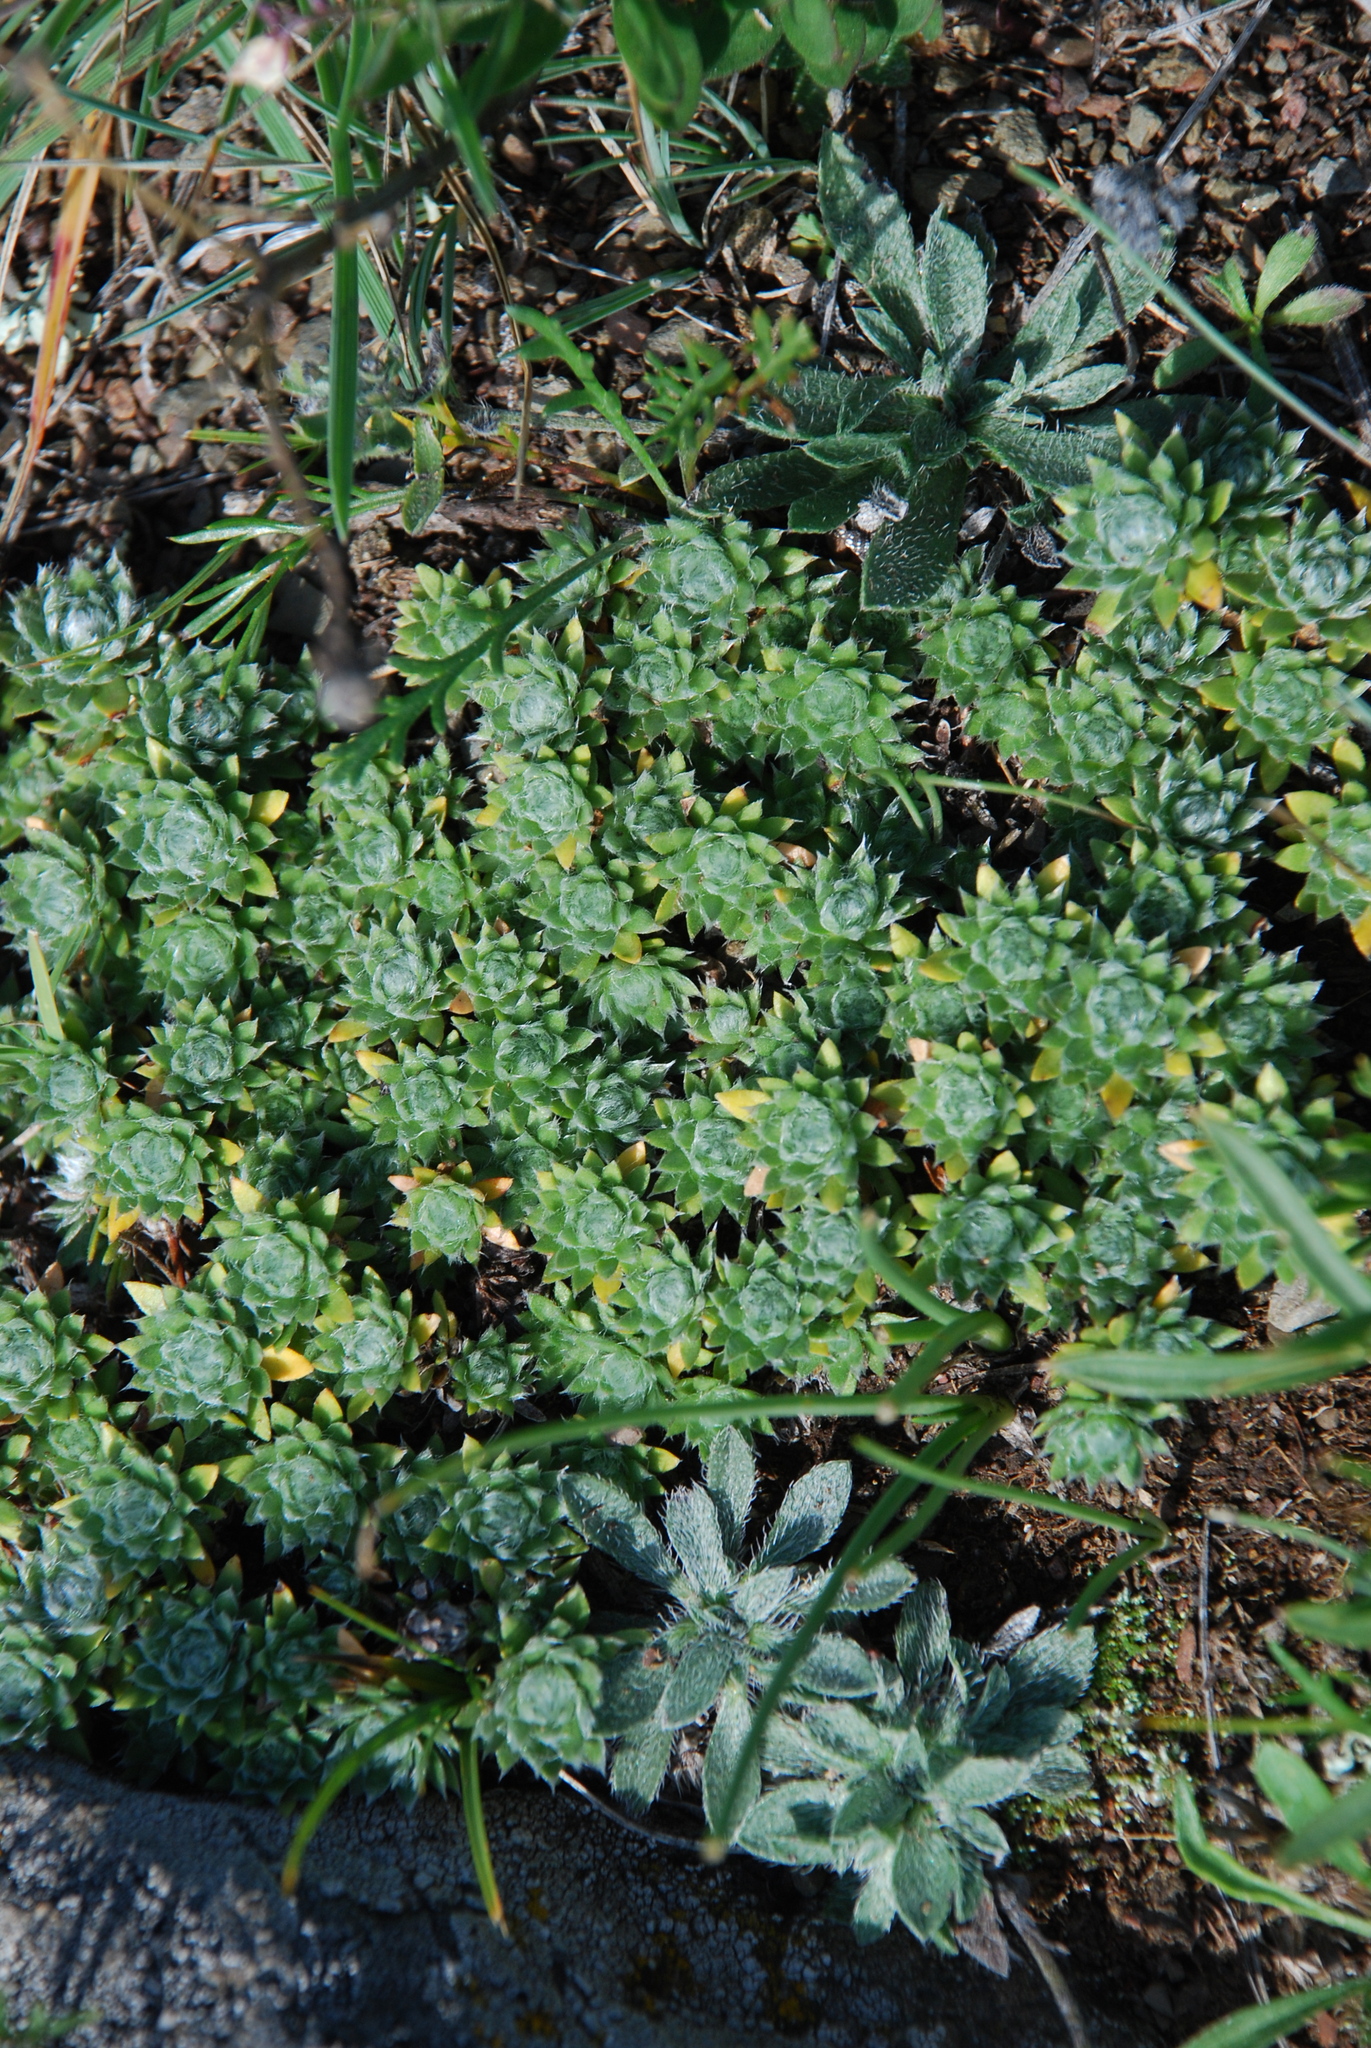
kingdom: Plantae
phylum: Tracheophyta
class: Magnoliopsida
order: Ericales
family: Primulaceae
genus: Androsace
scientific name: Androsace incana
